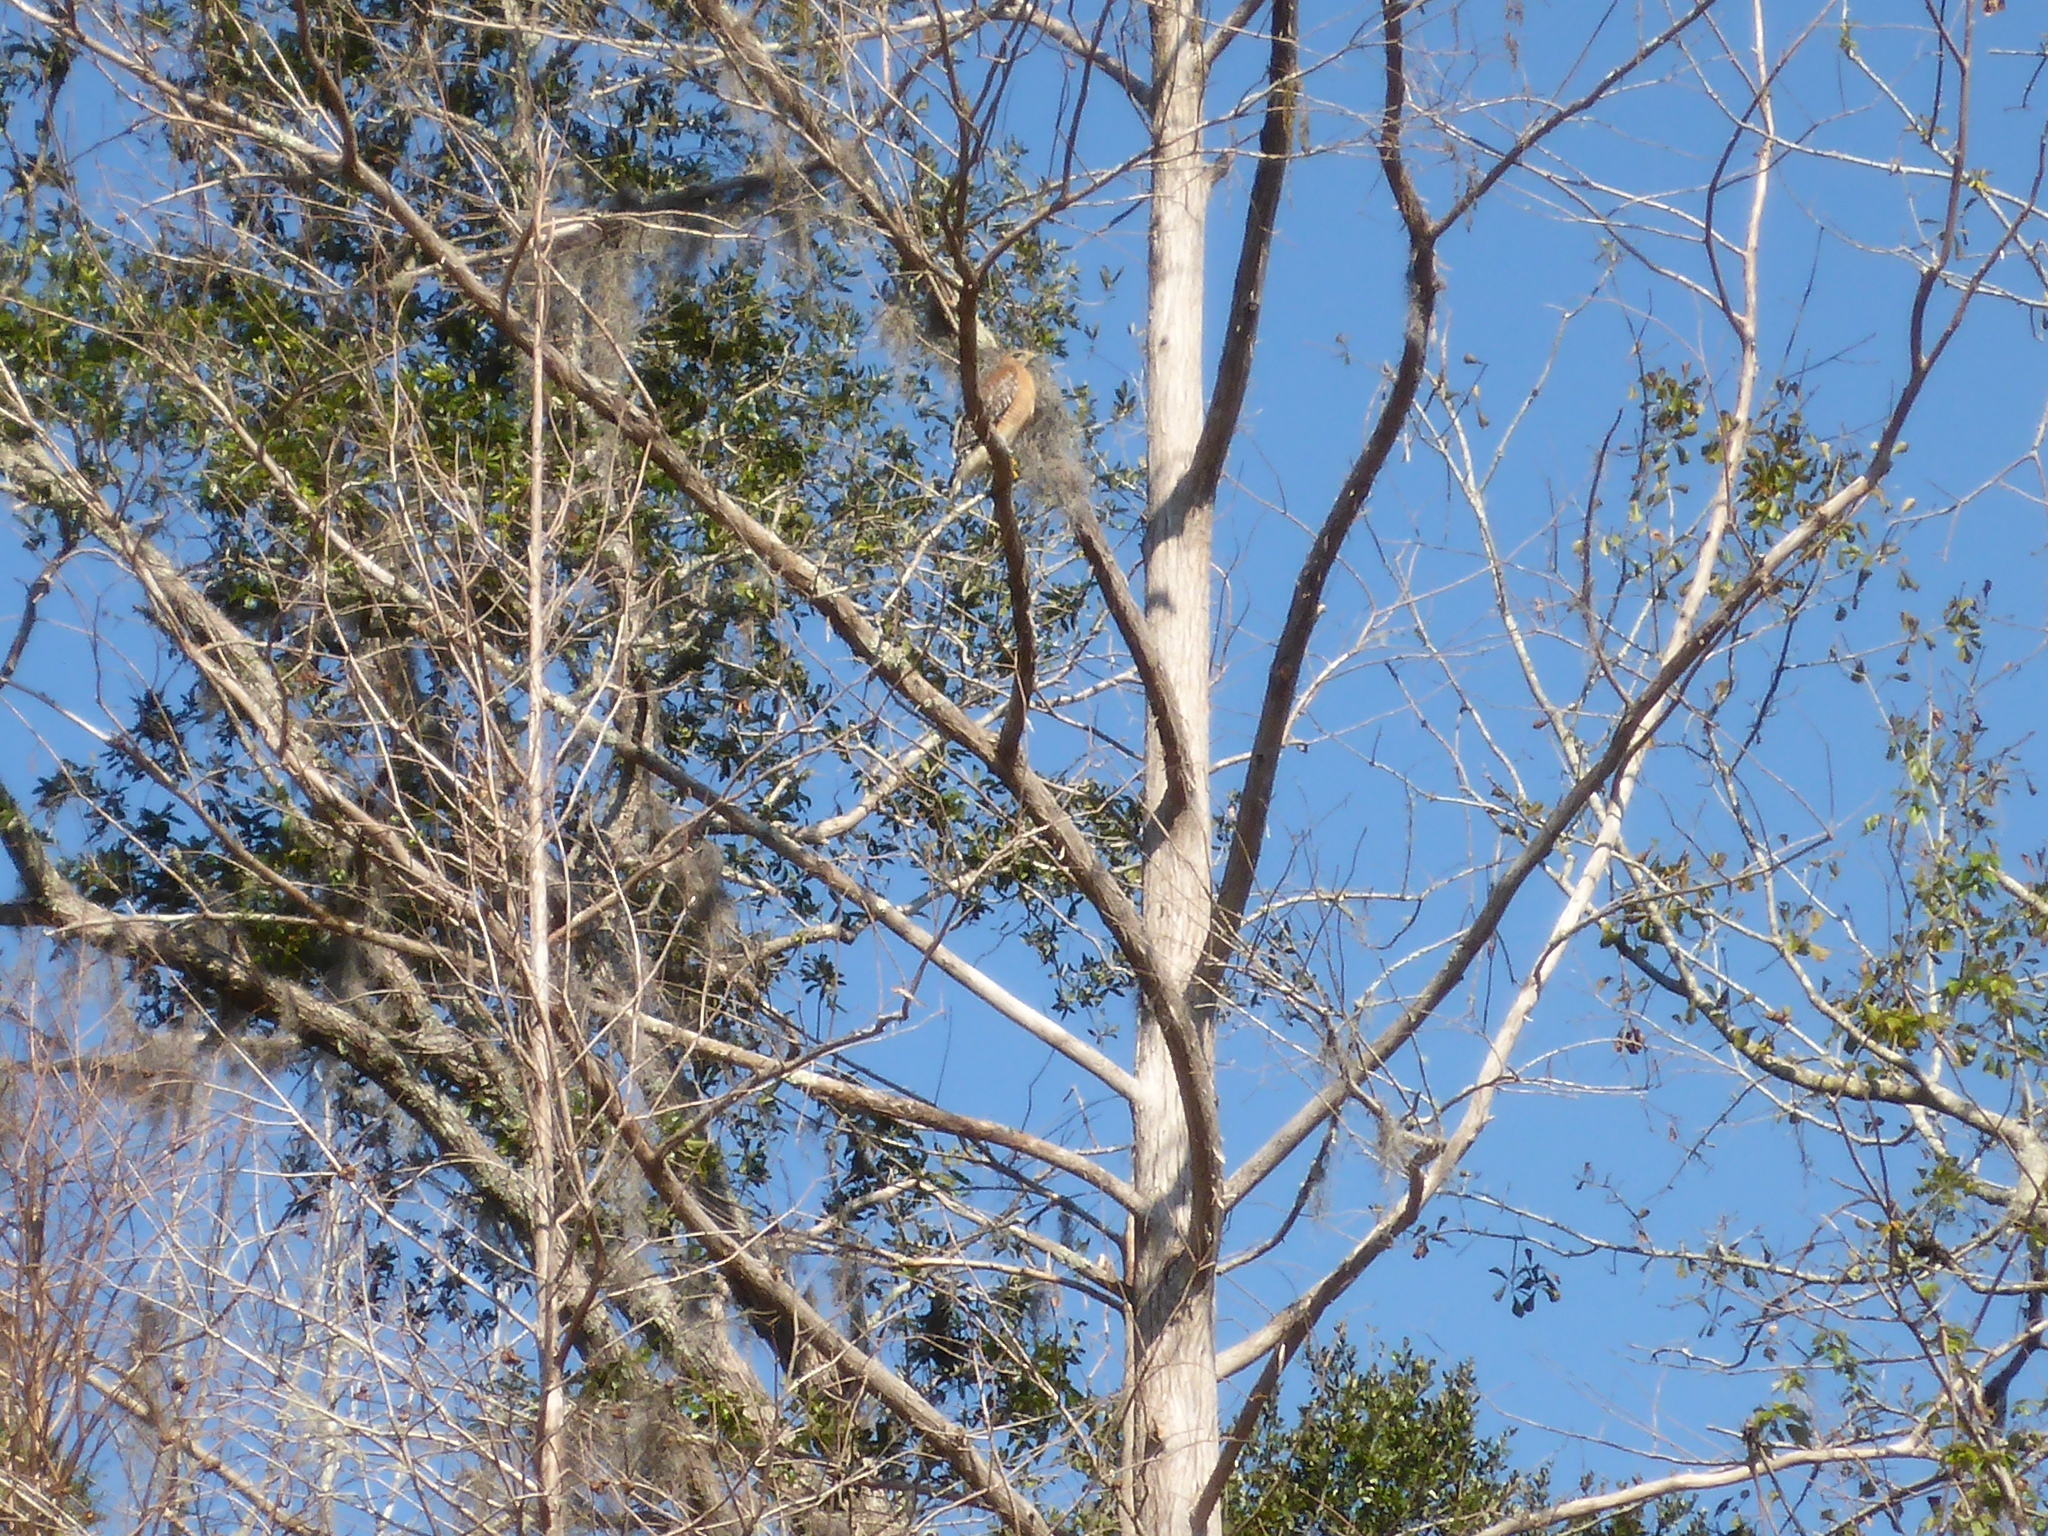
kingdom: Animalia
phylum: Chordata
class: Aves
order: Accipitriformes
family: Accipitridae
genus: Buteo
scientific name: Buteo lineatus
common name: Red-shouldered hawk
